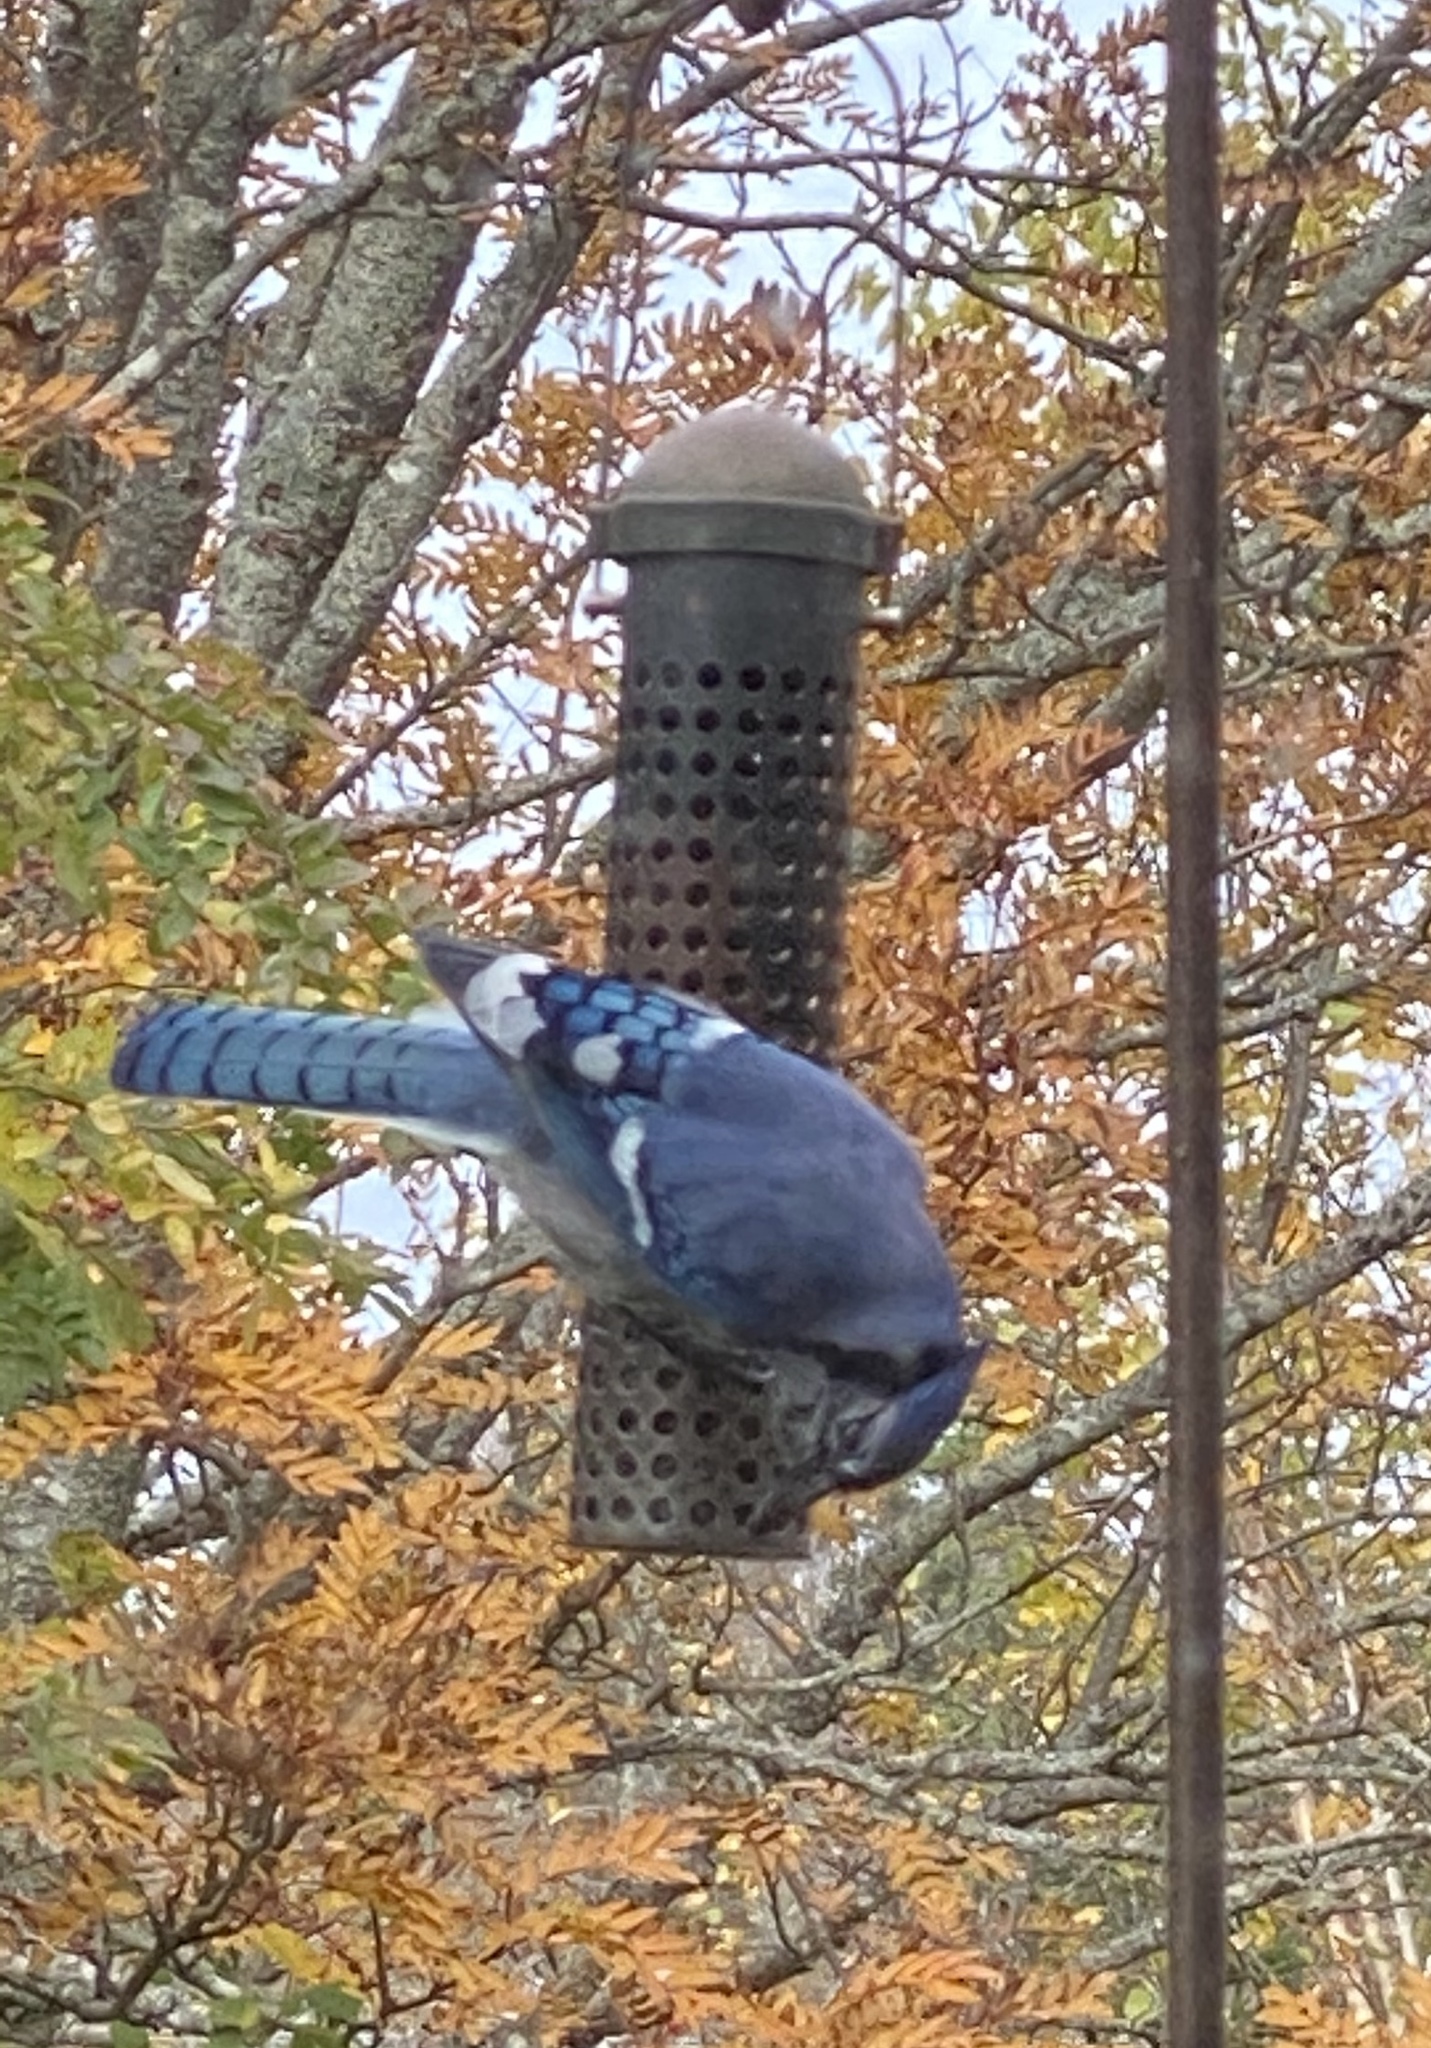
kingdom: Animalia
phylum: Chordata
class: Aves
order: Passeriformes
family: Corvidae
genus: Cyanocitta
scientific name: Cyanocitta cristata
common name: Blue jay
